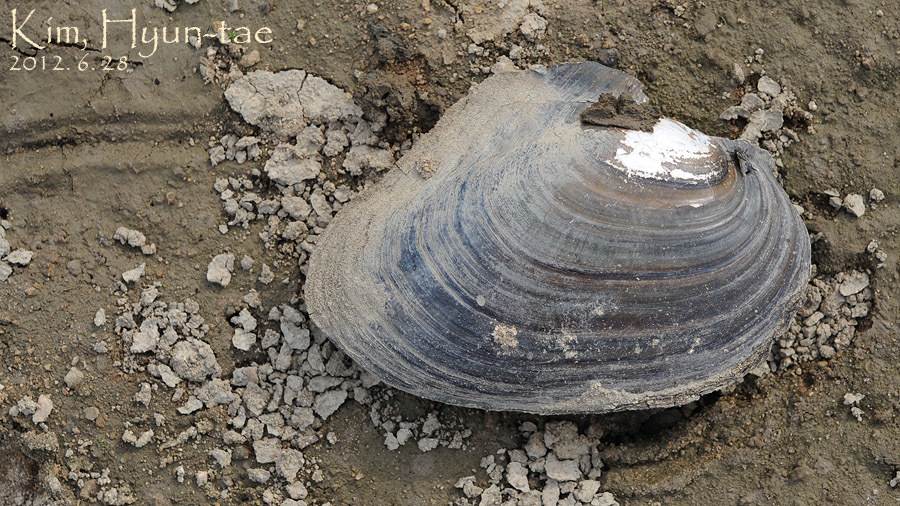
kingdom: Animalia
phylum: Mollusca
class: Bivalvia
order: Unionida
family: Unionidae
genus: Cristaria
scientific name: Cristaria plicata
